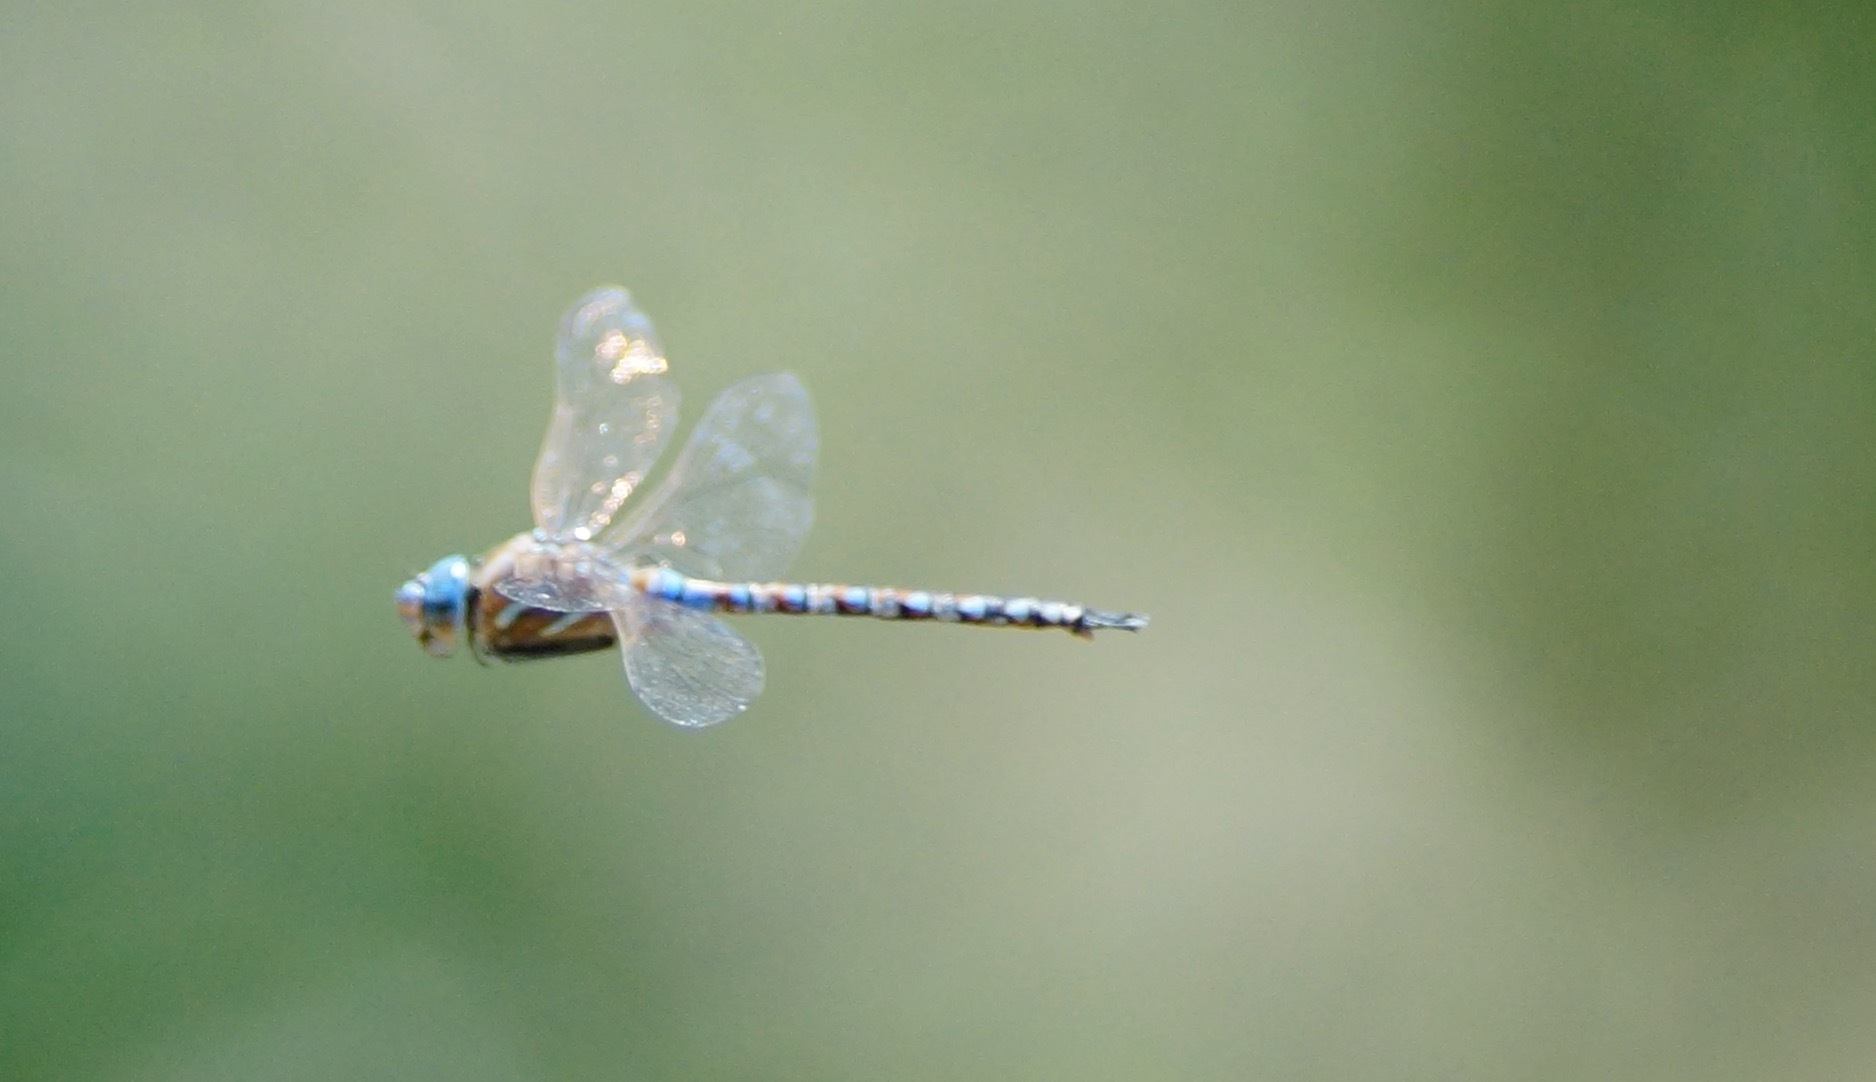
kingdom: Animalia
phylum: Arthropoda
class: Insecta
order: Odonata
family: Aeshnidae
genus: Rhionaeschna
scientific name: Rhionaeschna multicolor
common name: Blue-eyed darner
